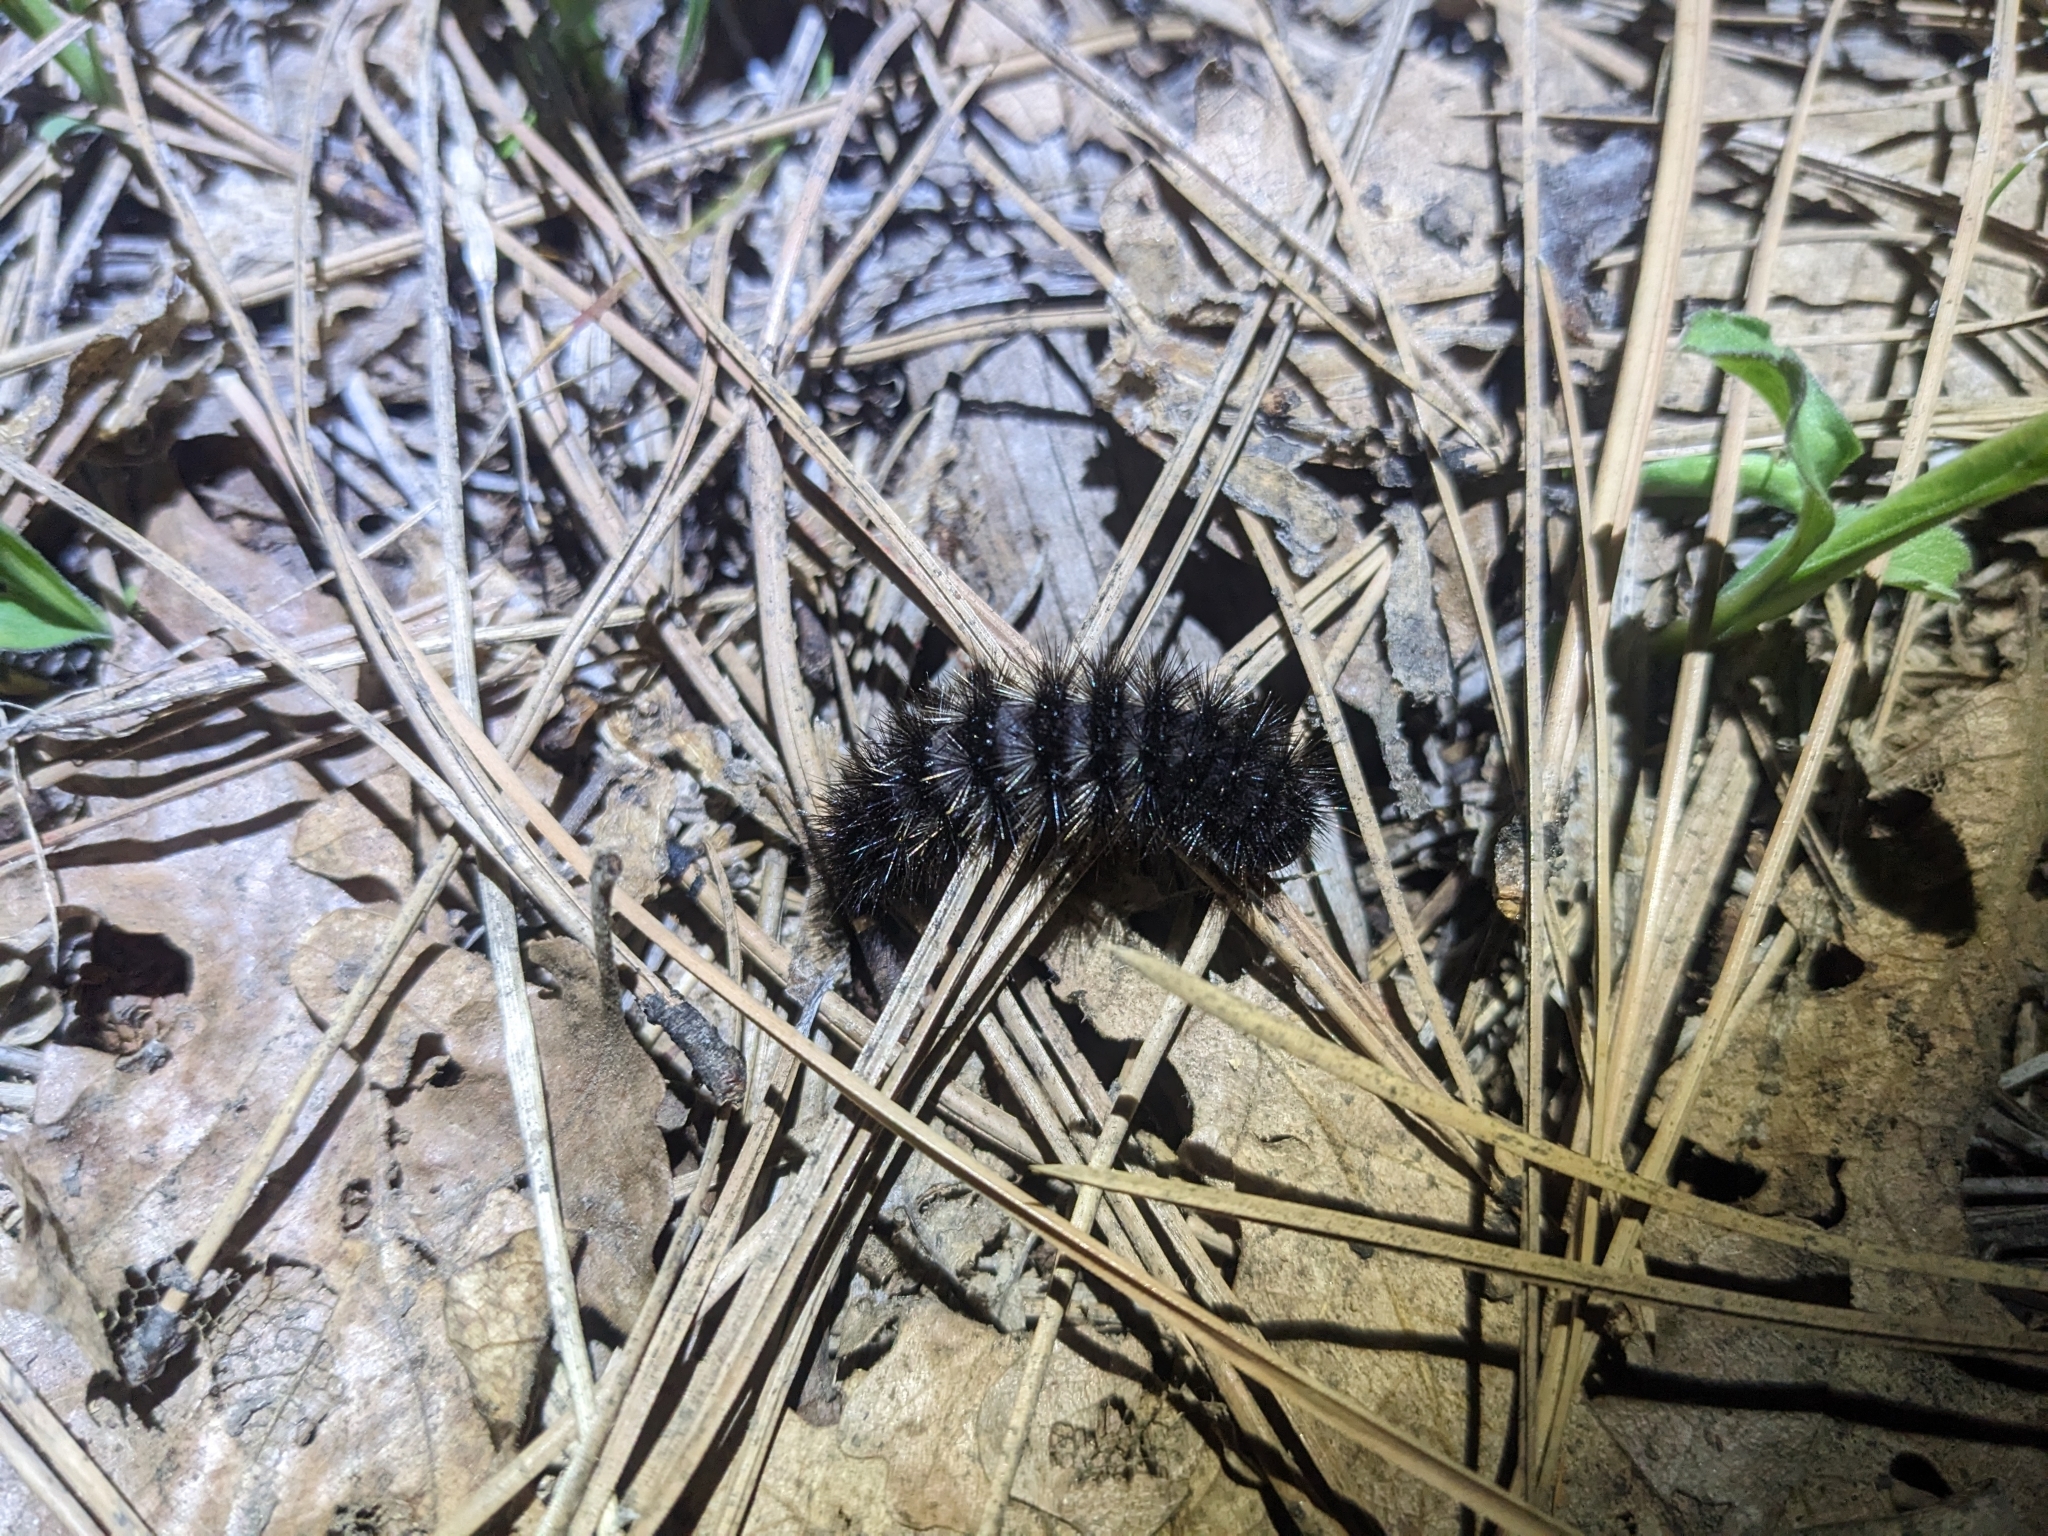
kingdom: Animalia
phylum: Arthropoda
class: Insecta
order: Lepidoptera
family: Erebidae
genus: Hypercompe
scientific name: Hypercompe permaculata
